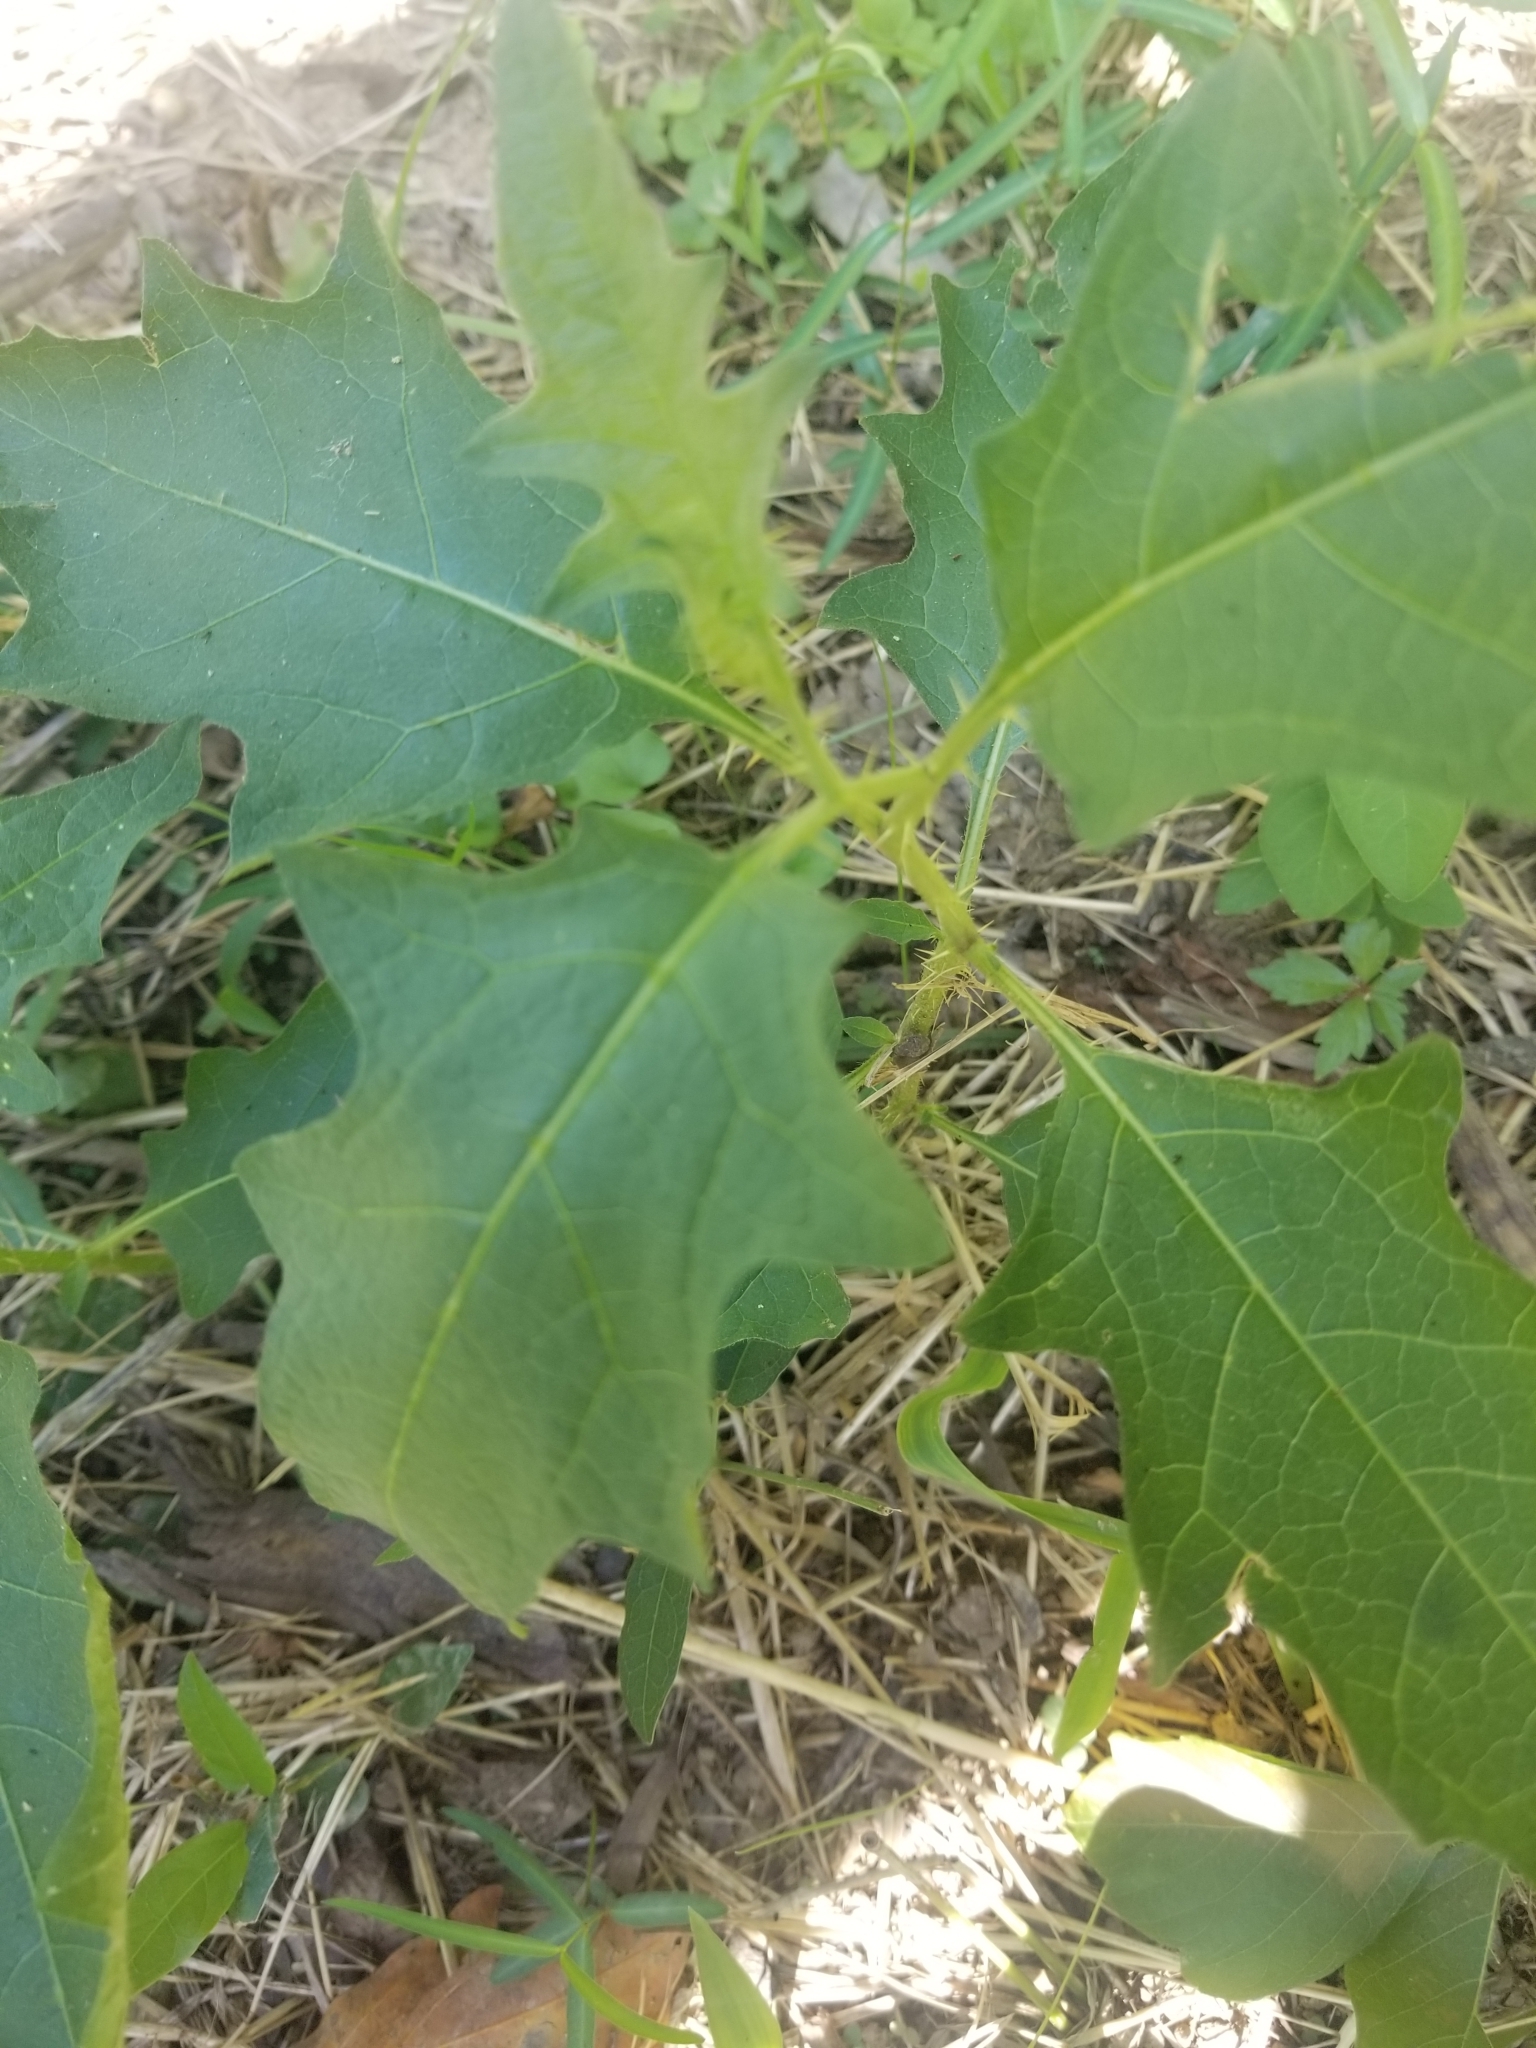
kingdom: Plantae
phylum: Tracheophyta
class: Magnoliopsida
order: Solanales
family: Solanaceae
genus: Solanum
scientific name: Solanum carolinense
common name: Horse-nettle
